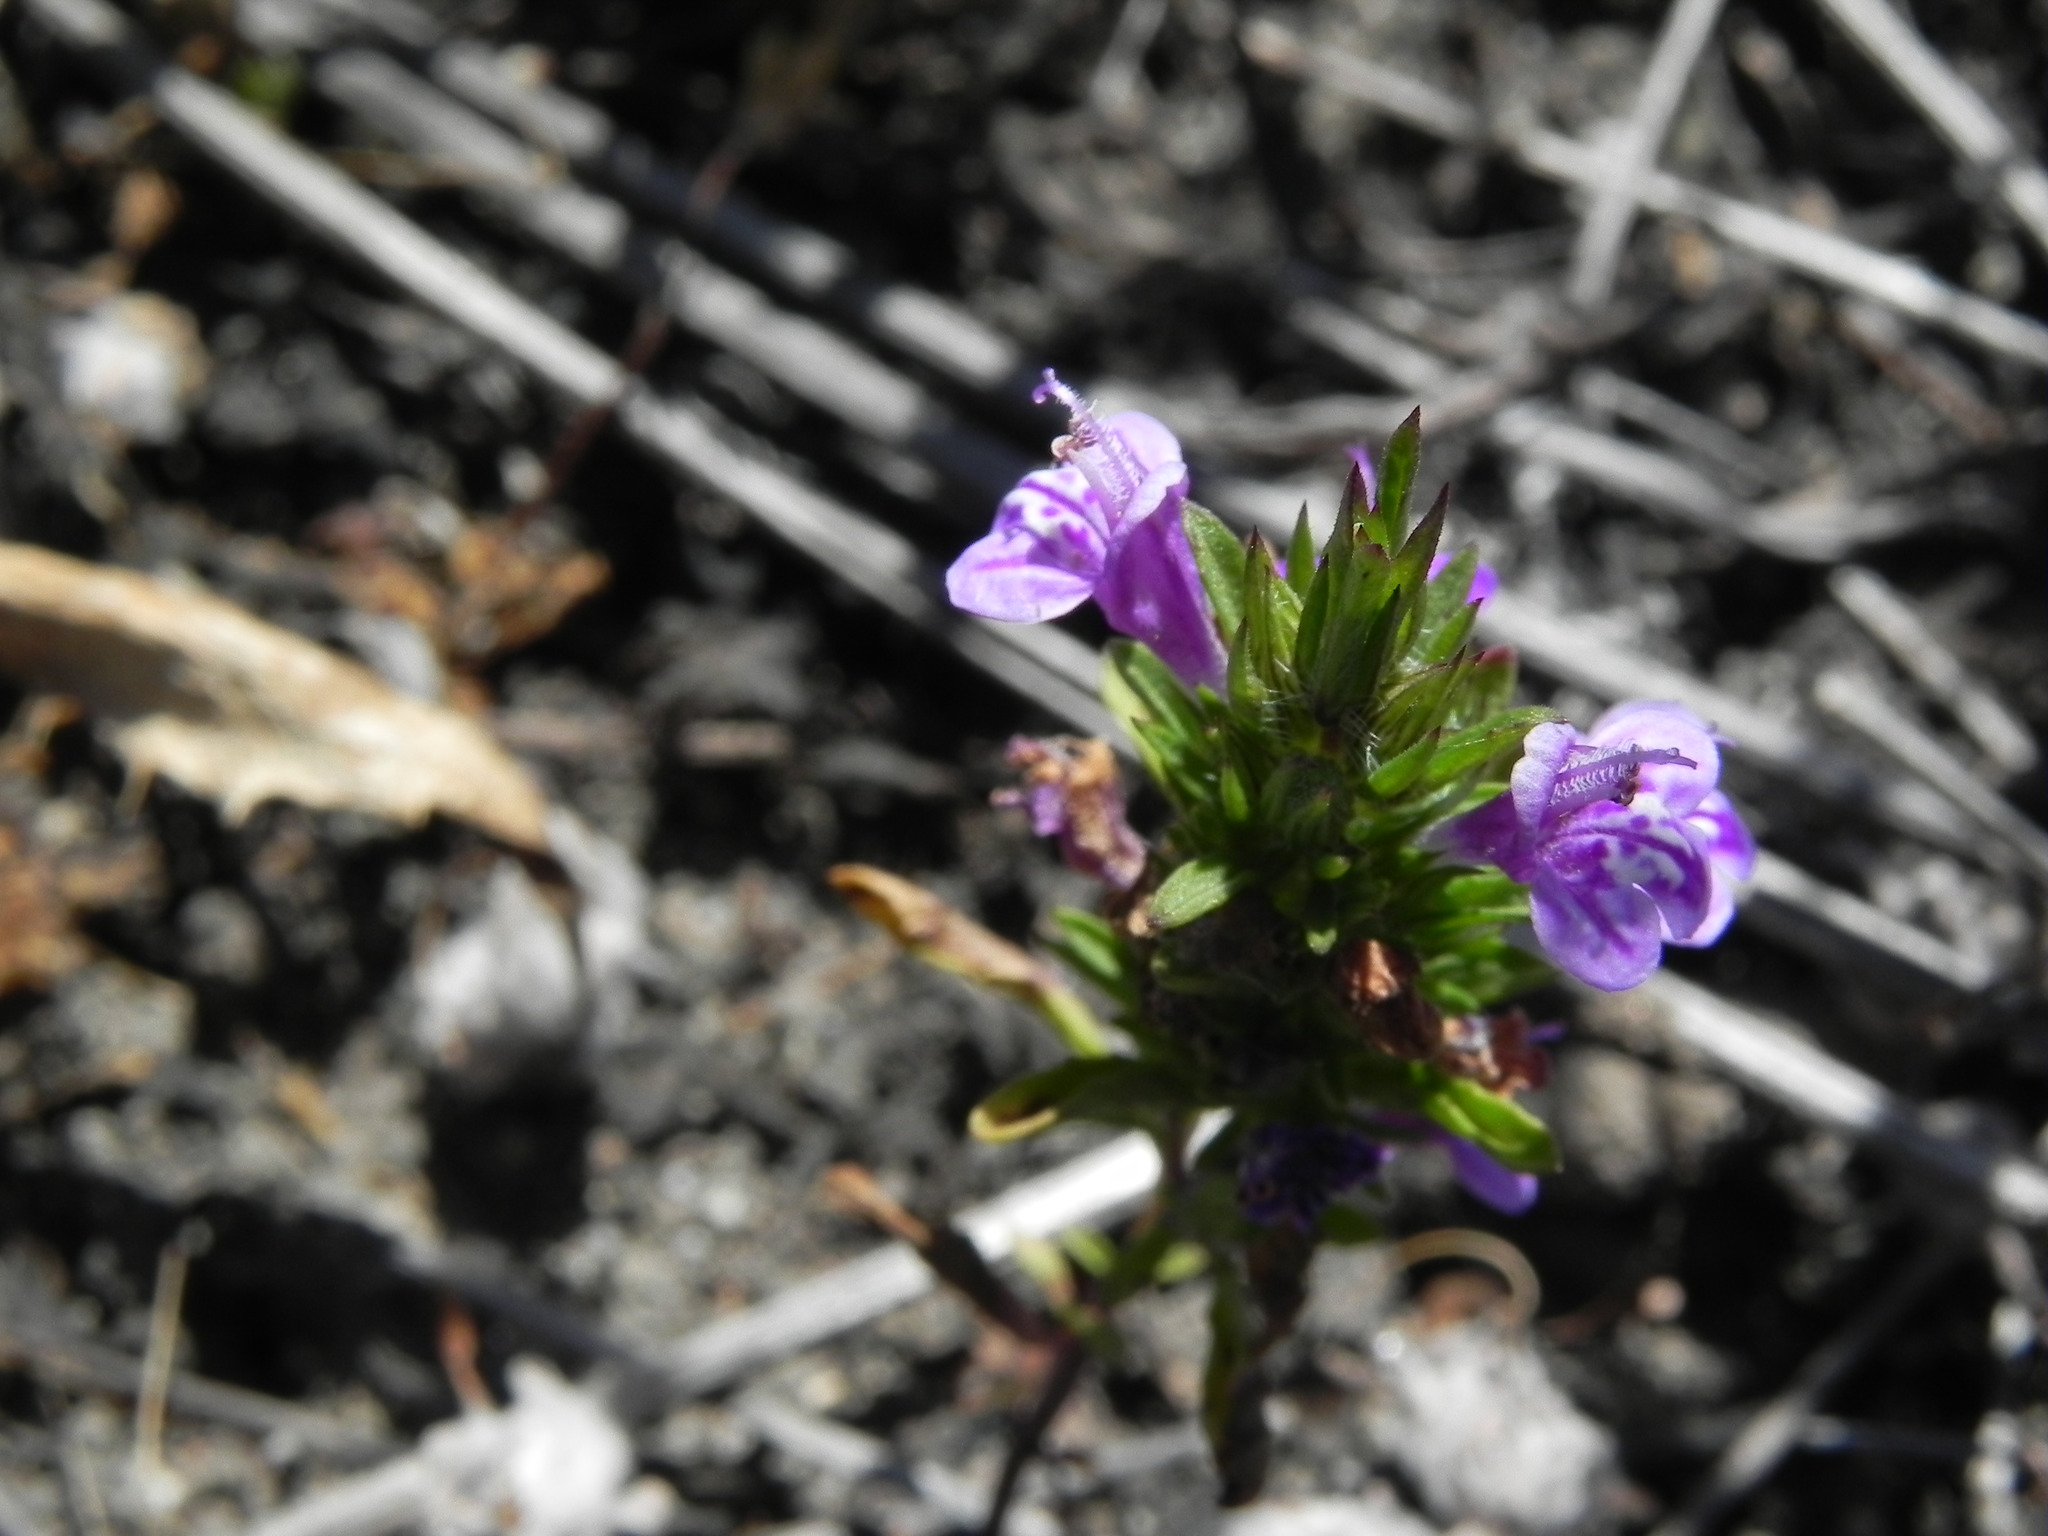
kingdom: Plantae
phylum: Tracheophyta
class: Magnoliopsida
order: Lamiales
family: Lamiaceae
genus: Pogogyne
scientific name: Pogogyne nudiuscula
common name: Otay mesa-mint
